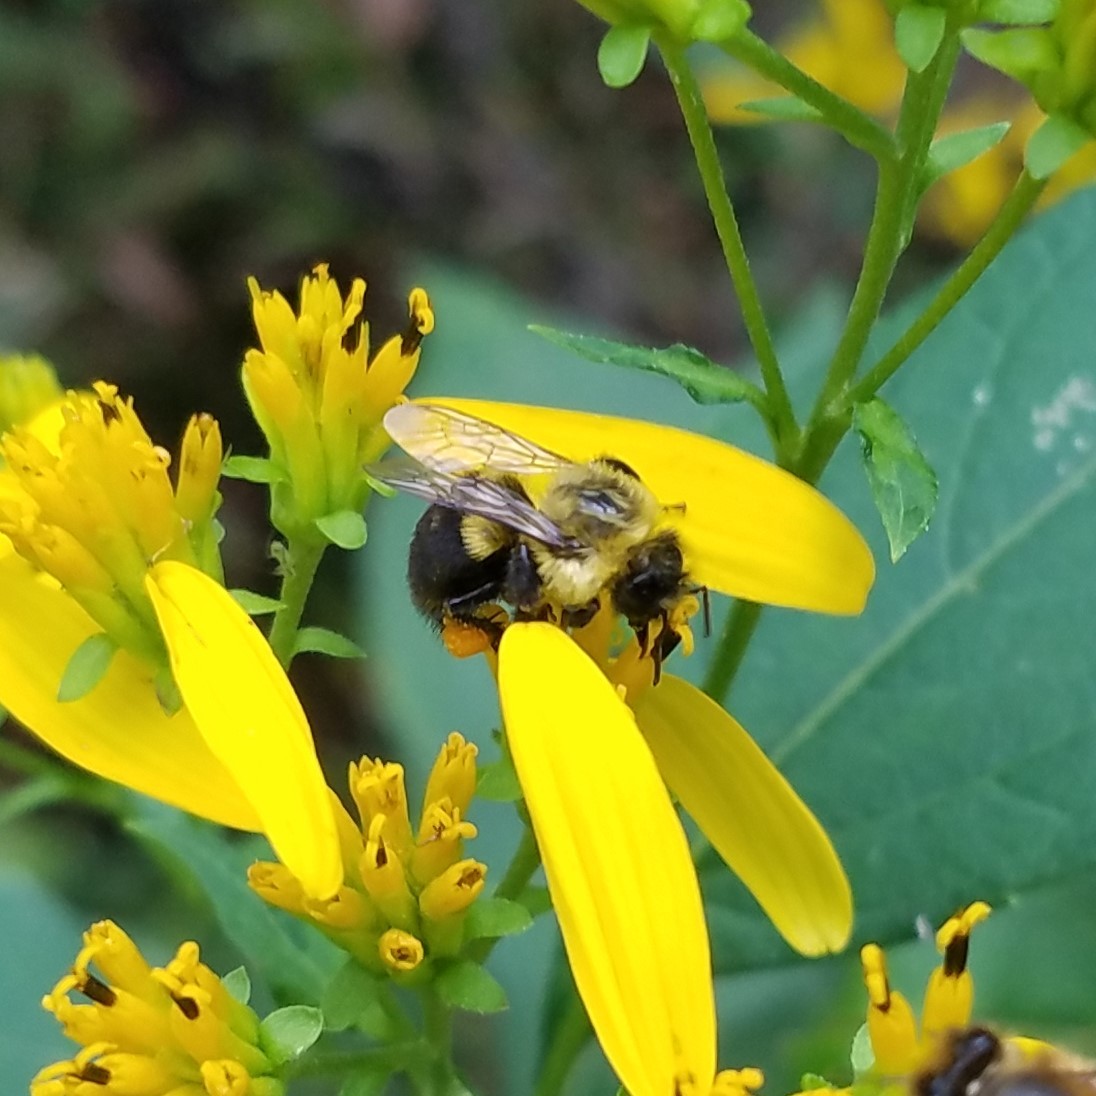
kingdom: Animalia
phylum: Arthropoda
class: Insecta
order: Hymenoptera
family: Apidae
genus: Bombus
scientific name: Bombus impatiens
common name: Common eastern bumble bee
